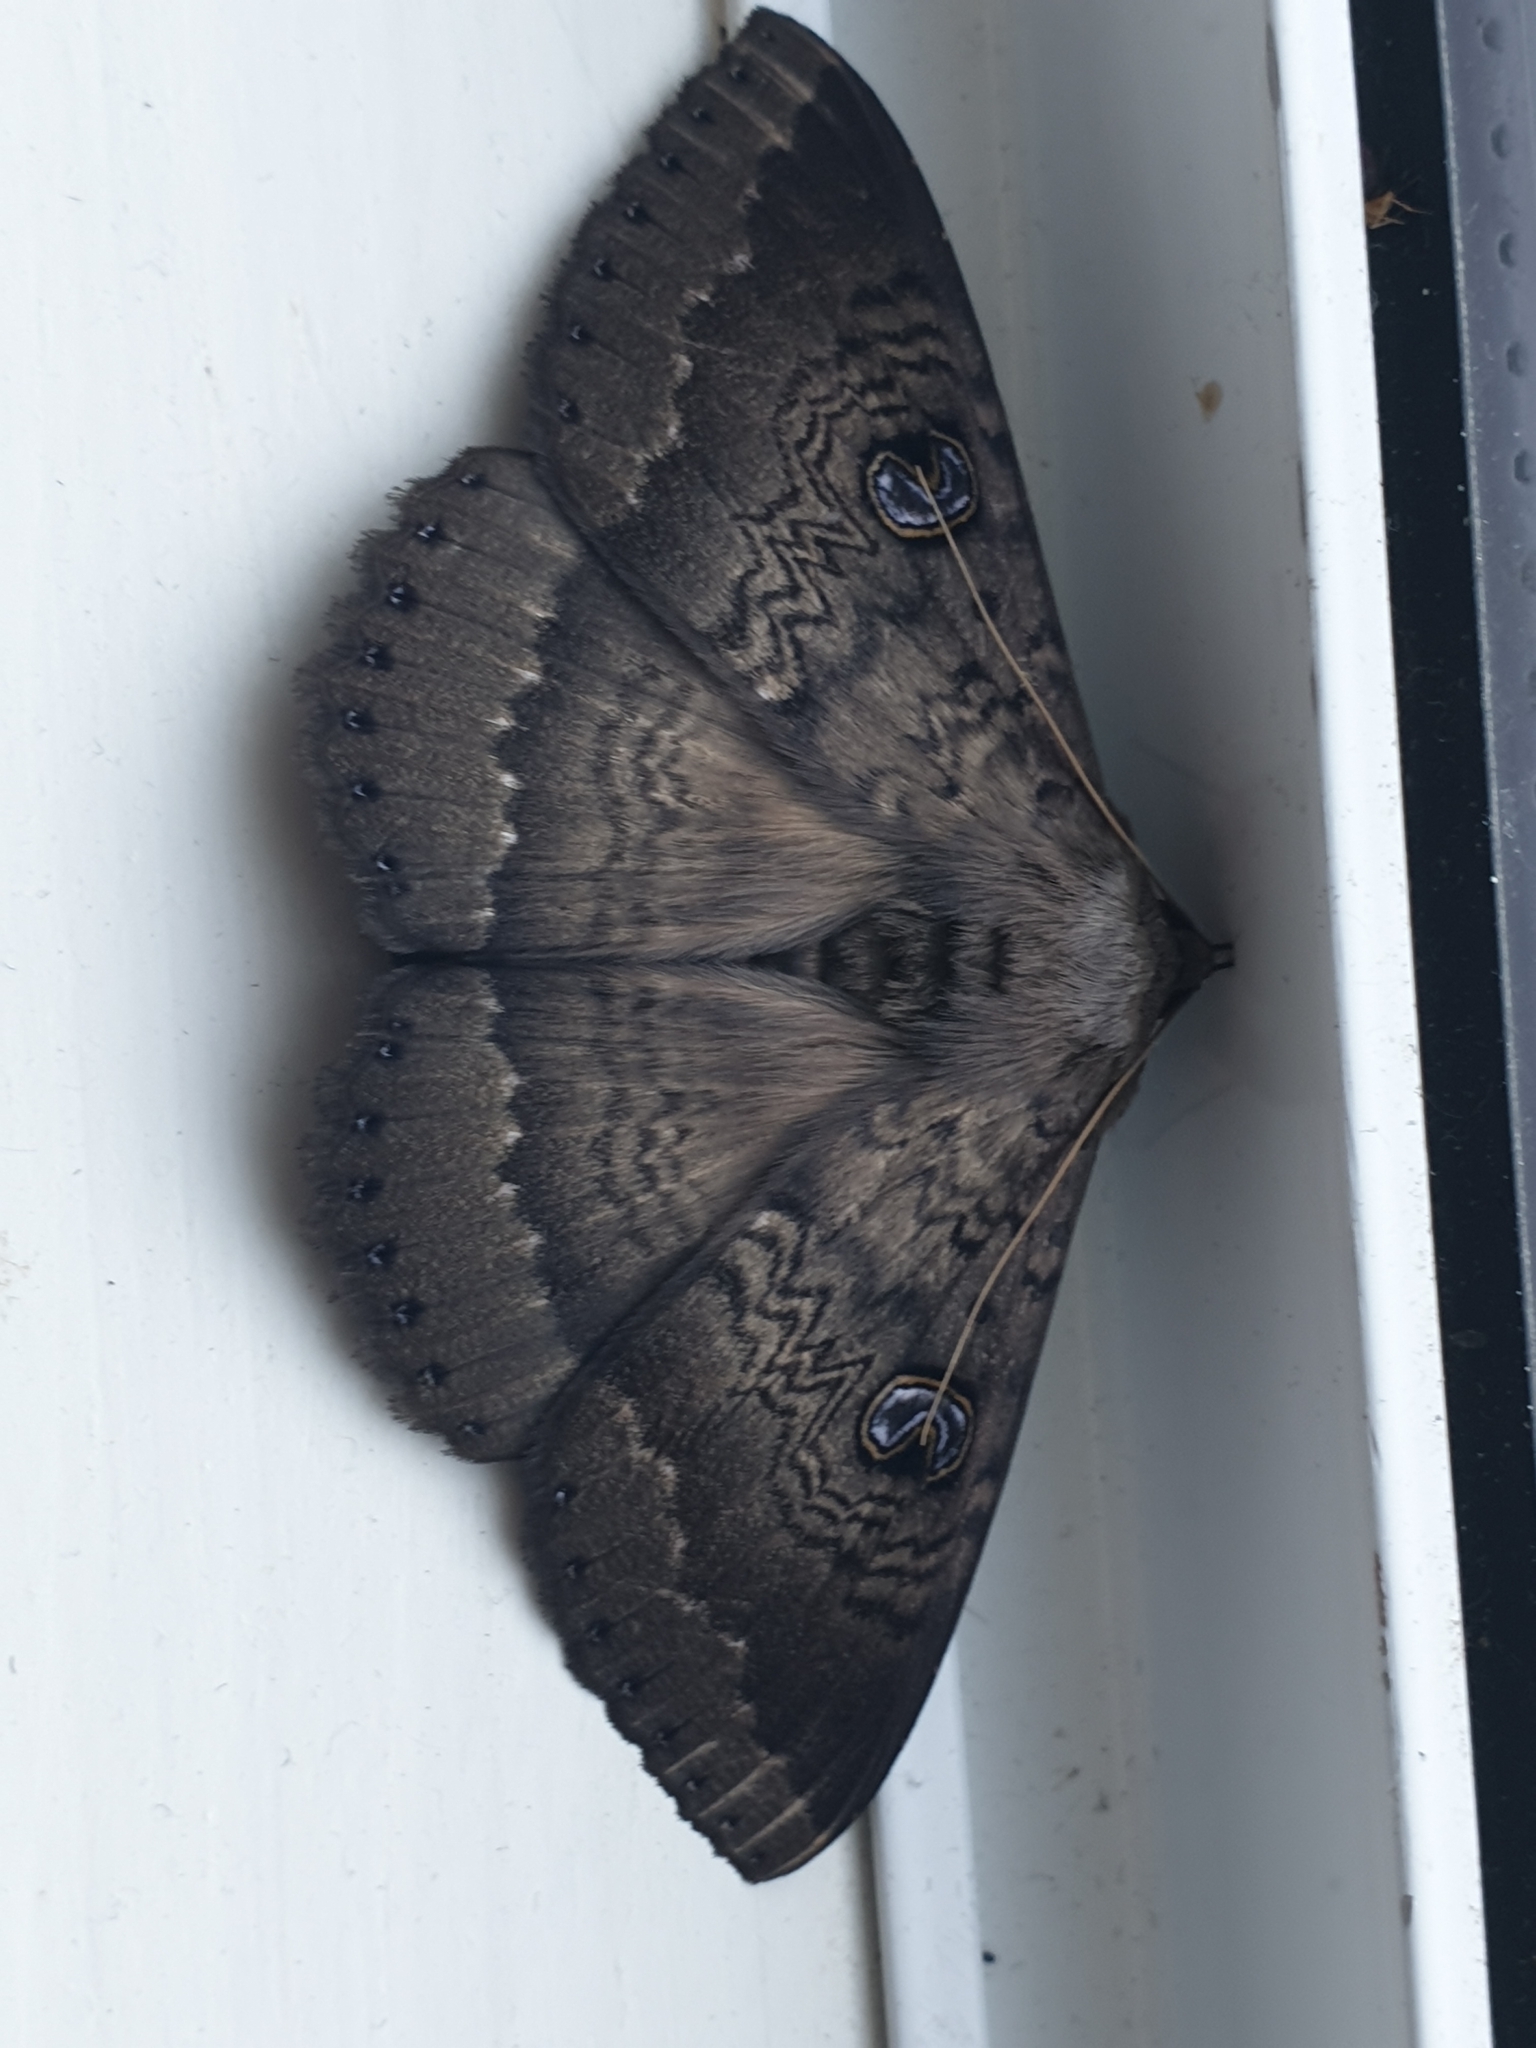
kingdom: Animalia
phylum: Arthropoda
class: Insecta
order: Lepidoptera
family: Erebidae
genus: Dasypodia
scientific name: Dasypodia cymatodes
